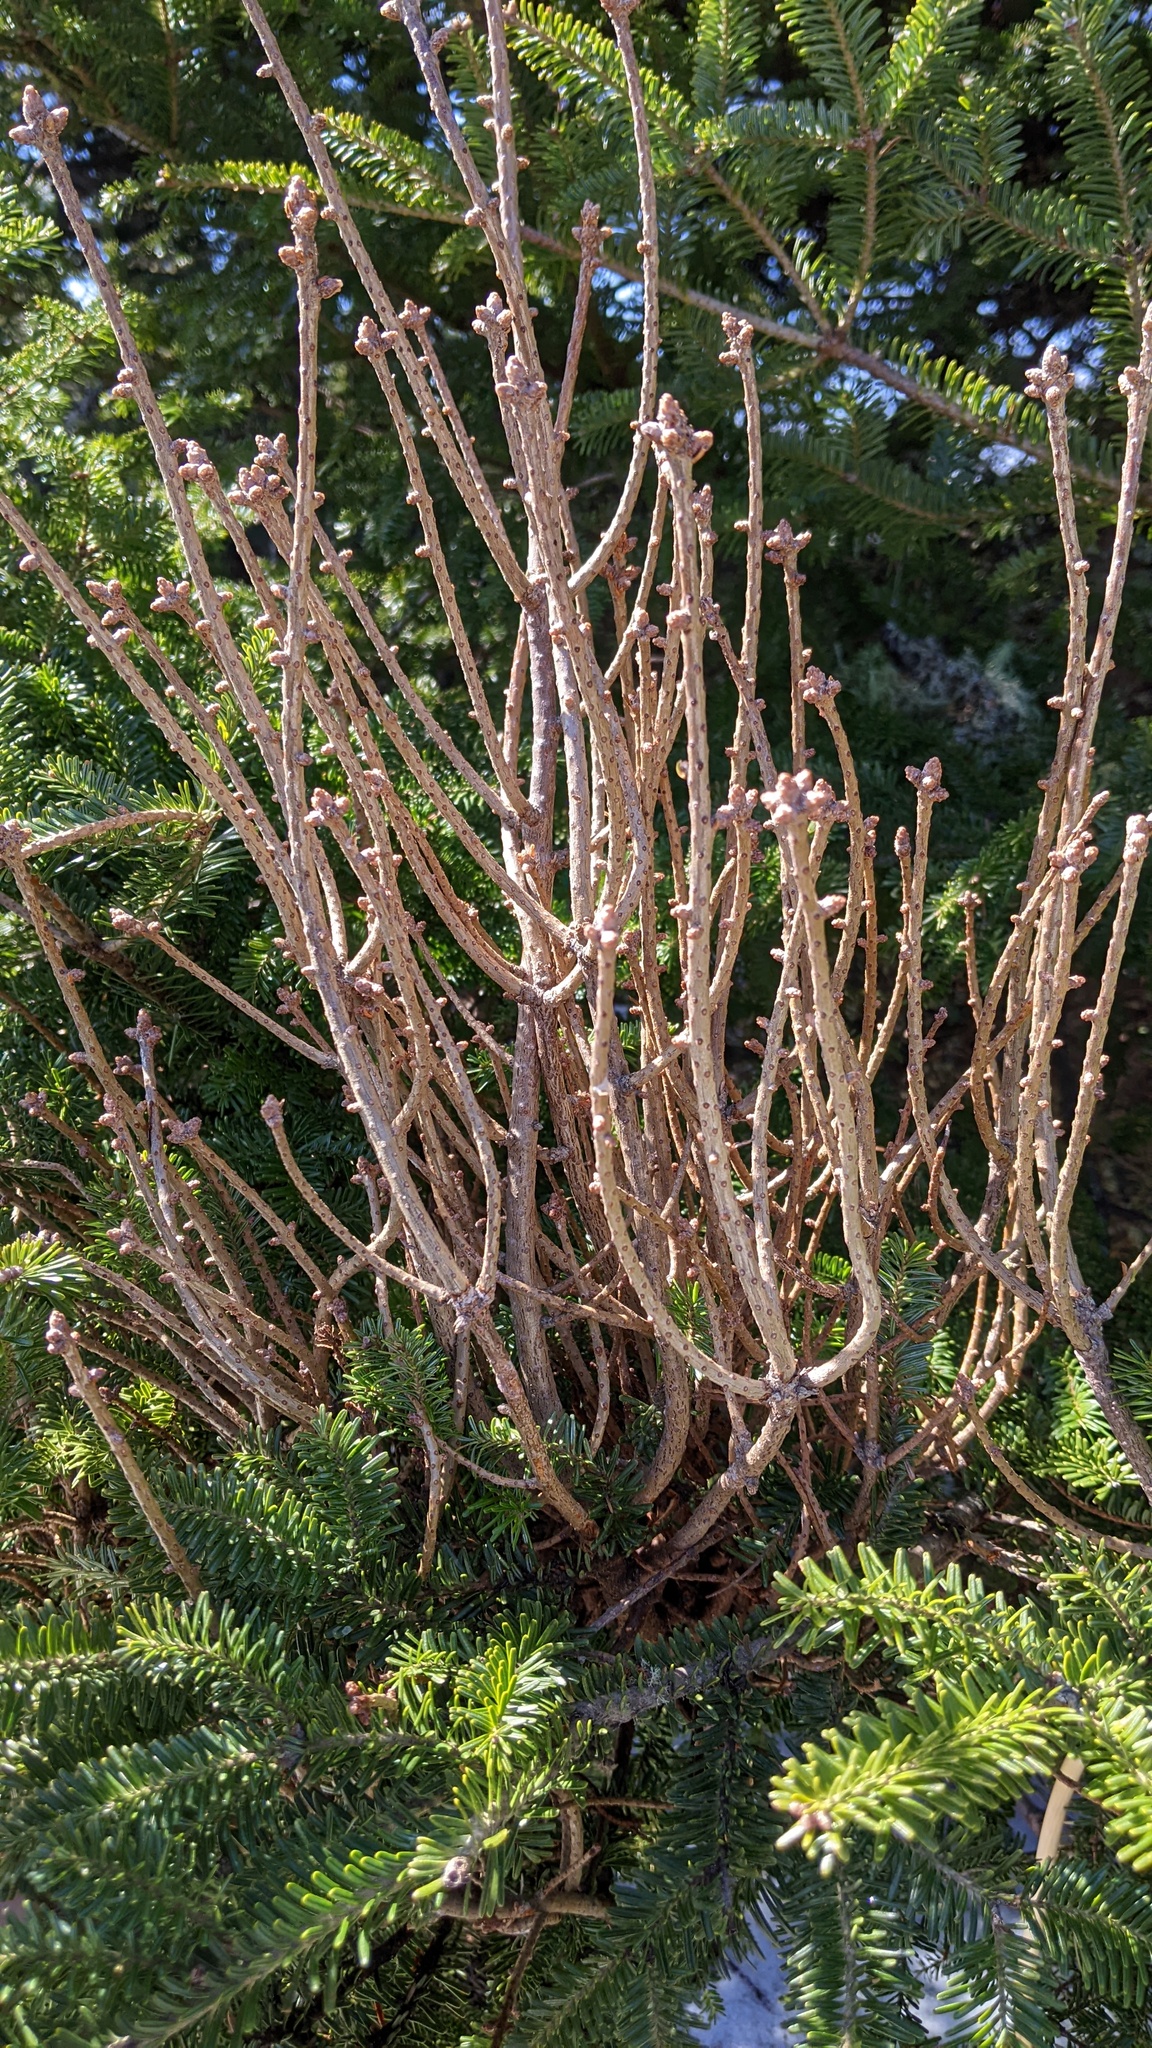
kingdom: Fungi
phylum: Basidiomycota
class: Pucciniomycetes
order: Pucciniales
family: Pucciniastraceae
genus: Melampsorella
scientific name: Melampsorella elatina
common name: Fir broom rust
